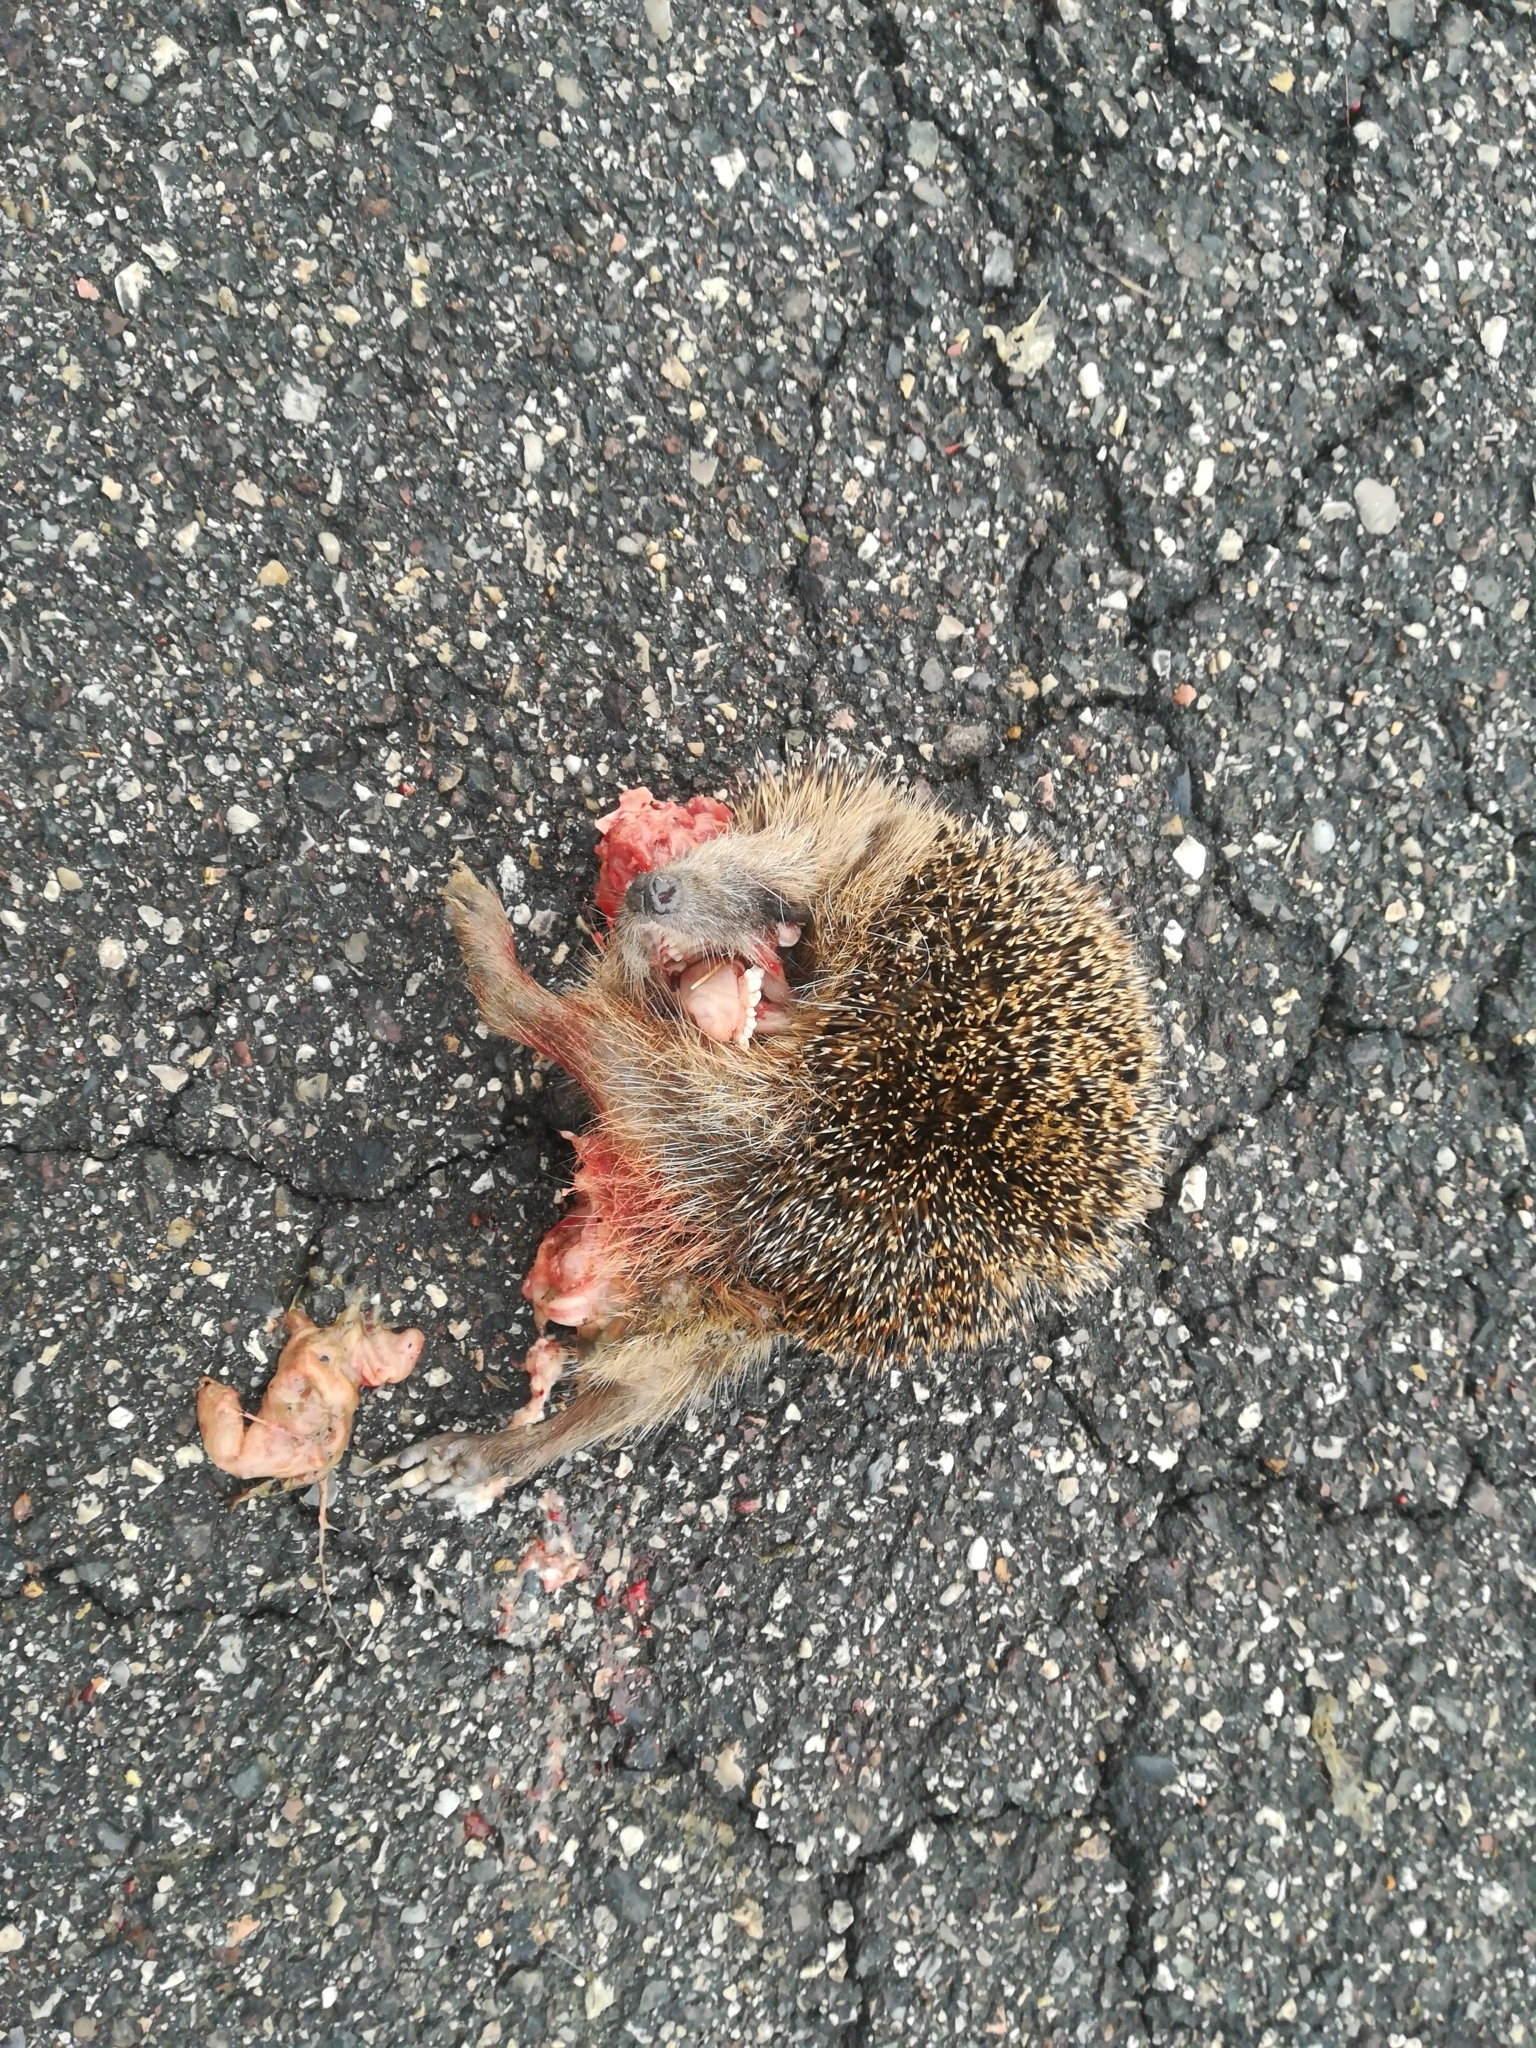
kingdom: Animalia
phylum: Chordata
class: Mammalia
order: Erinaceomorpha
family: Erinaceidae
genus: Erinaceus
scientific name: Erinaceus europaeus
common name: West european hedgehog
